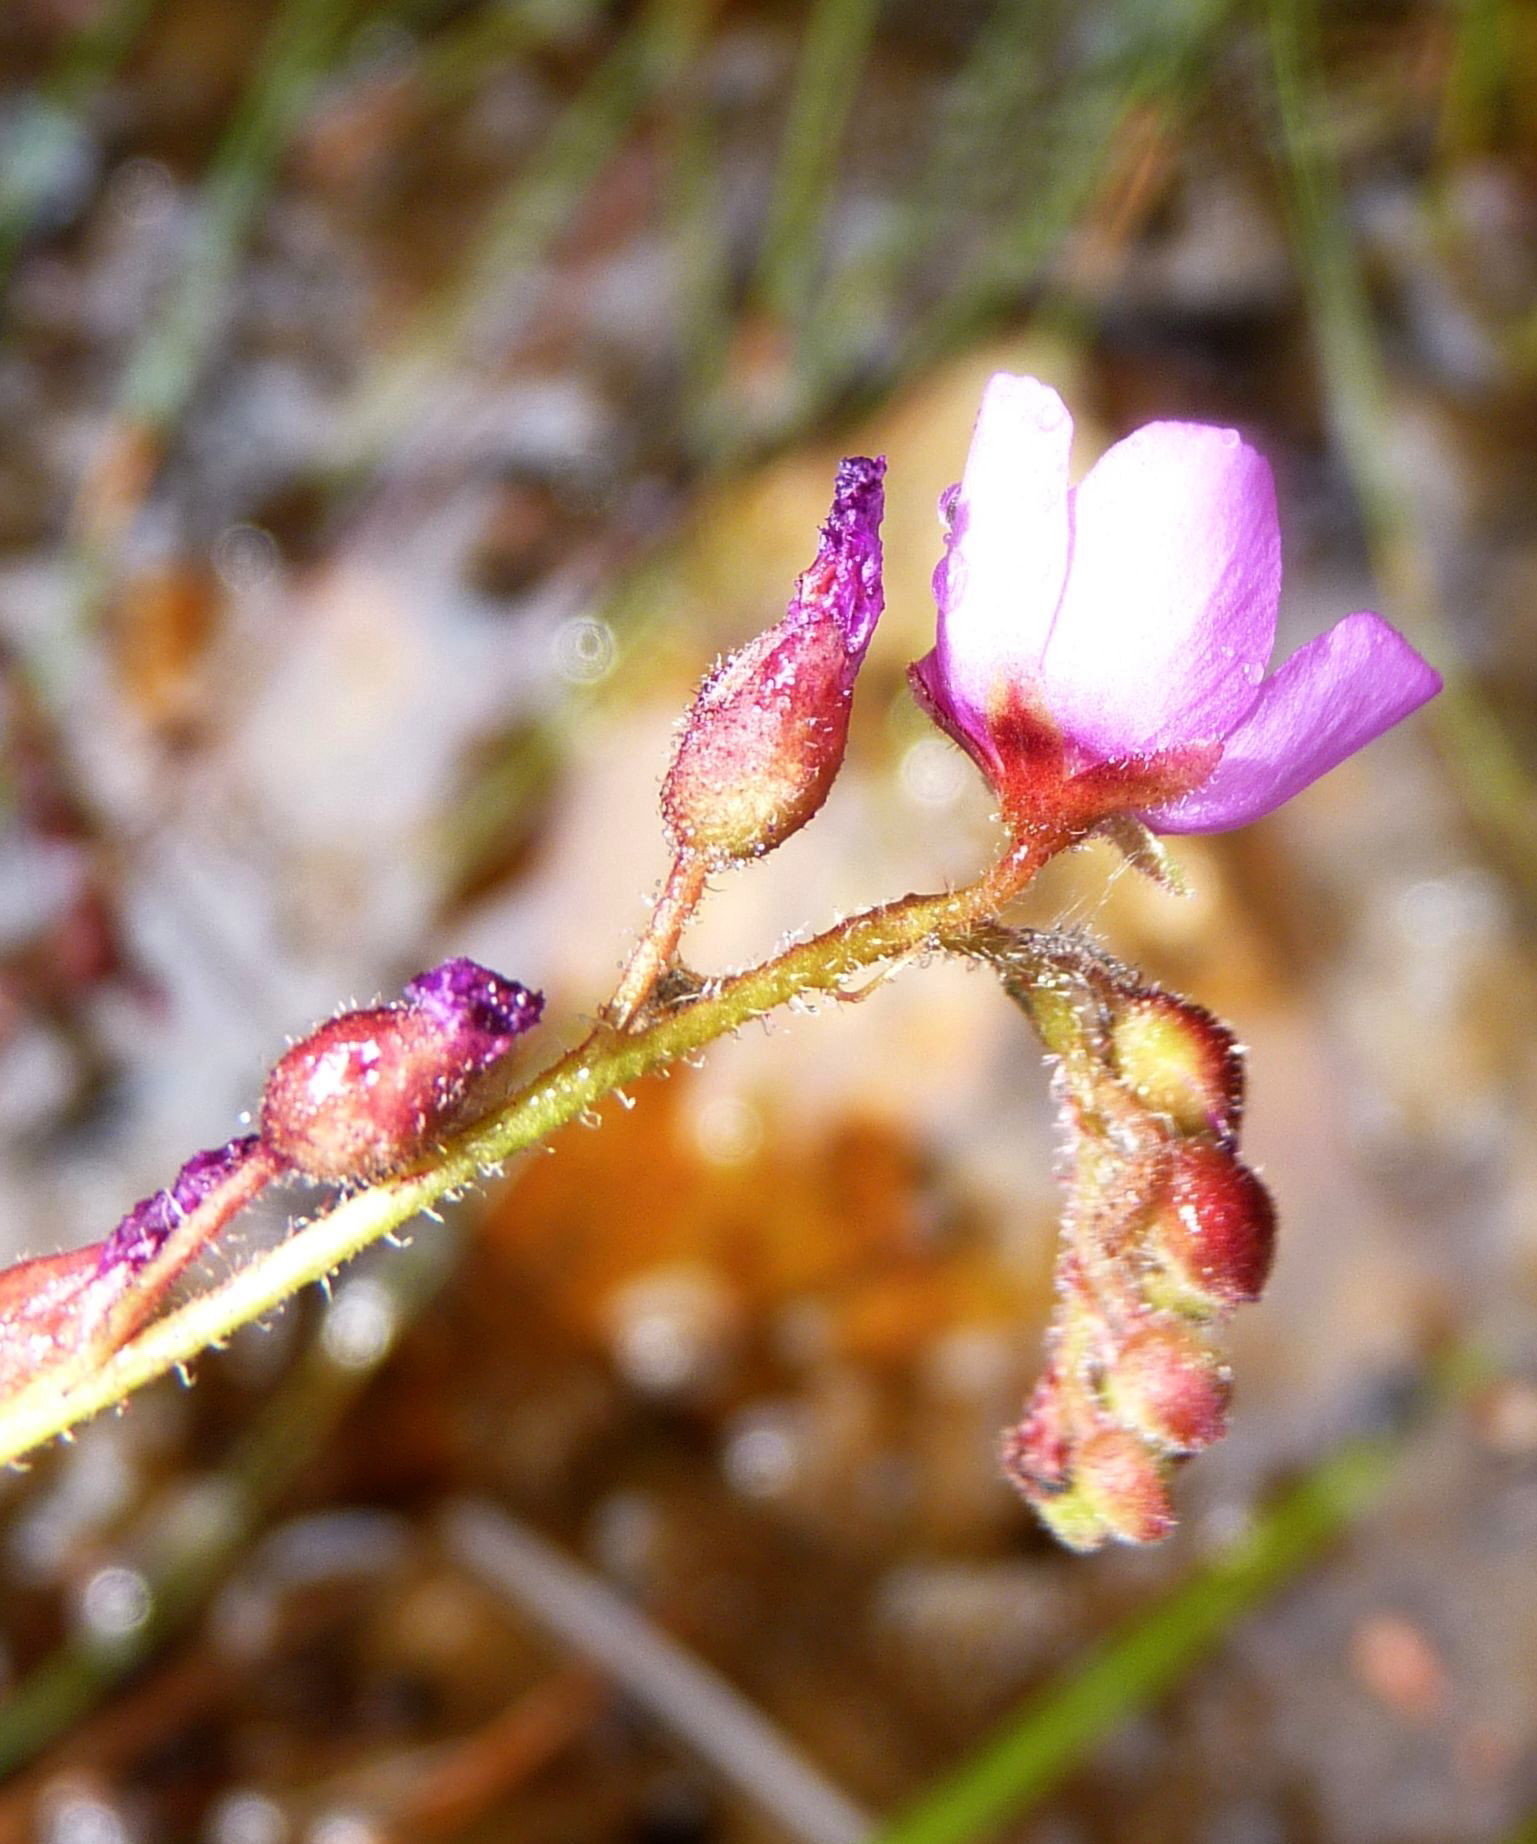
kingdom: Plantae
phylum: Tracheophyta
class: Magnoliopsida
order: Caryophyllales
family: Droseraceae
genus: Drosera
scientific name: Drosera capensis
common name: Cape sundew
